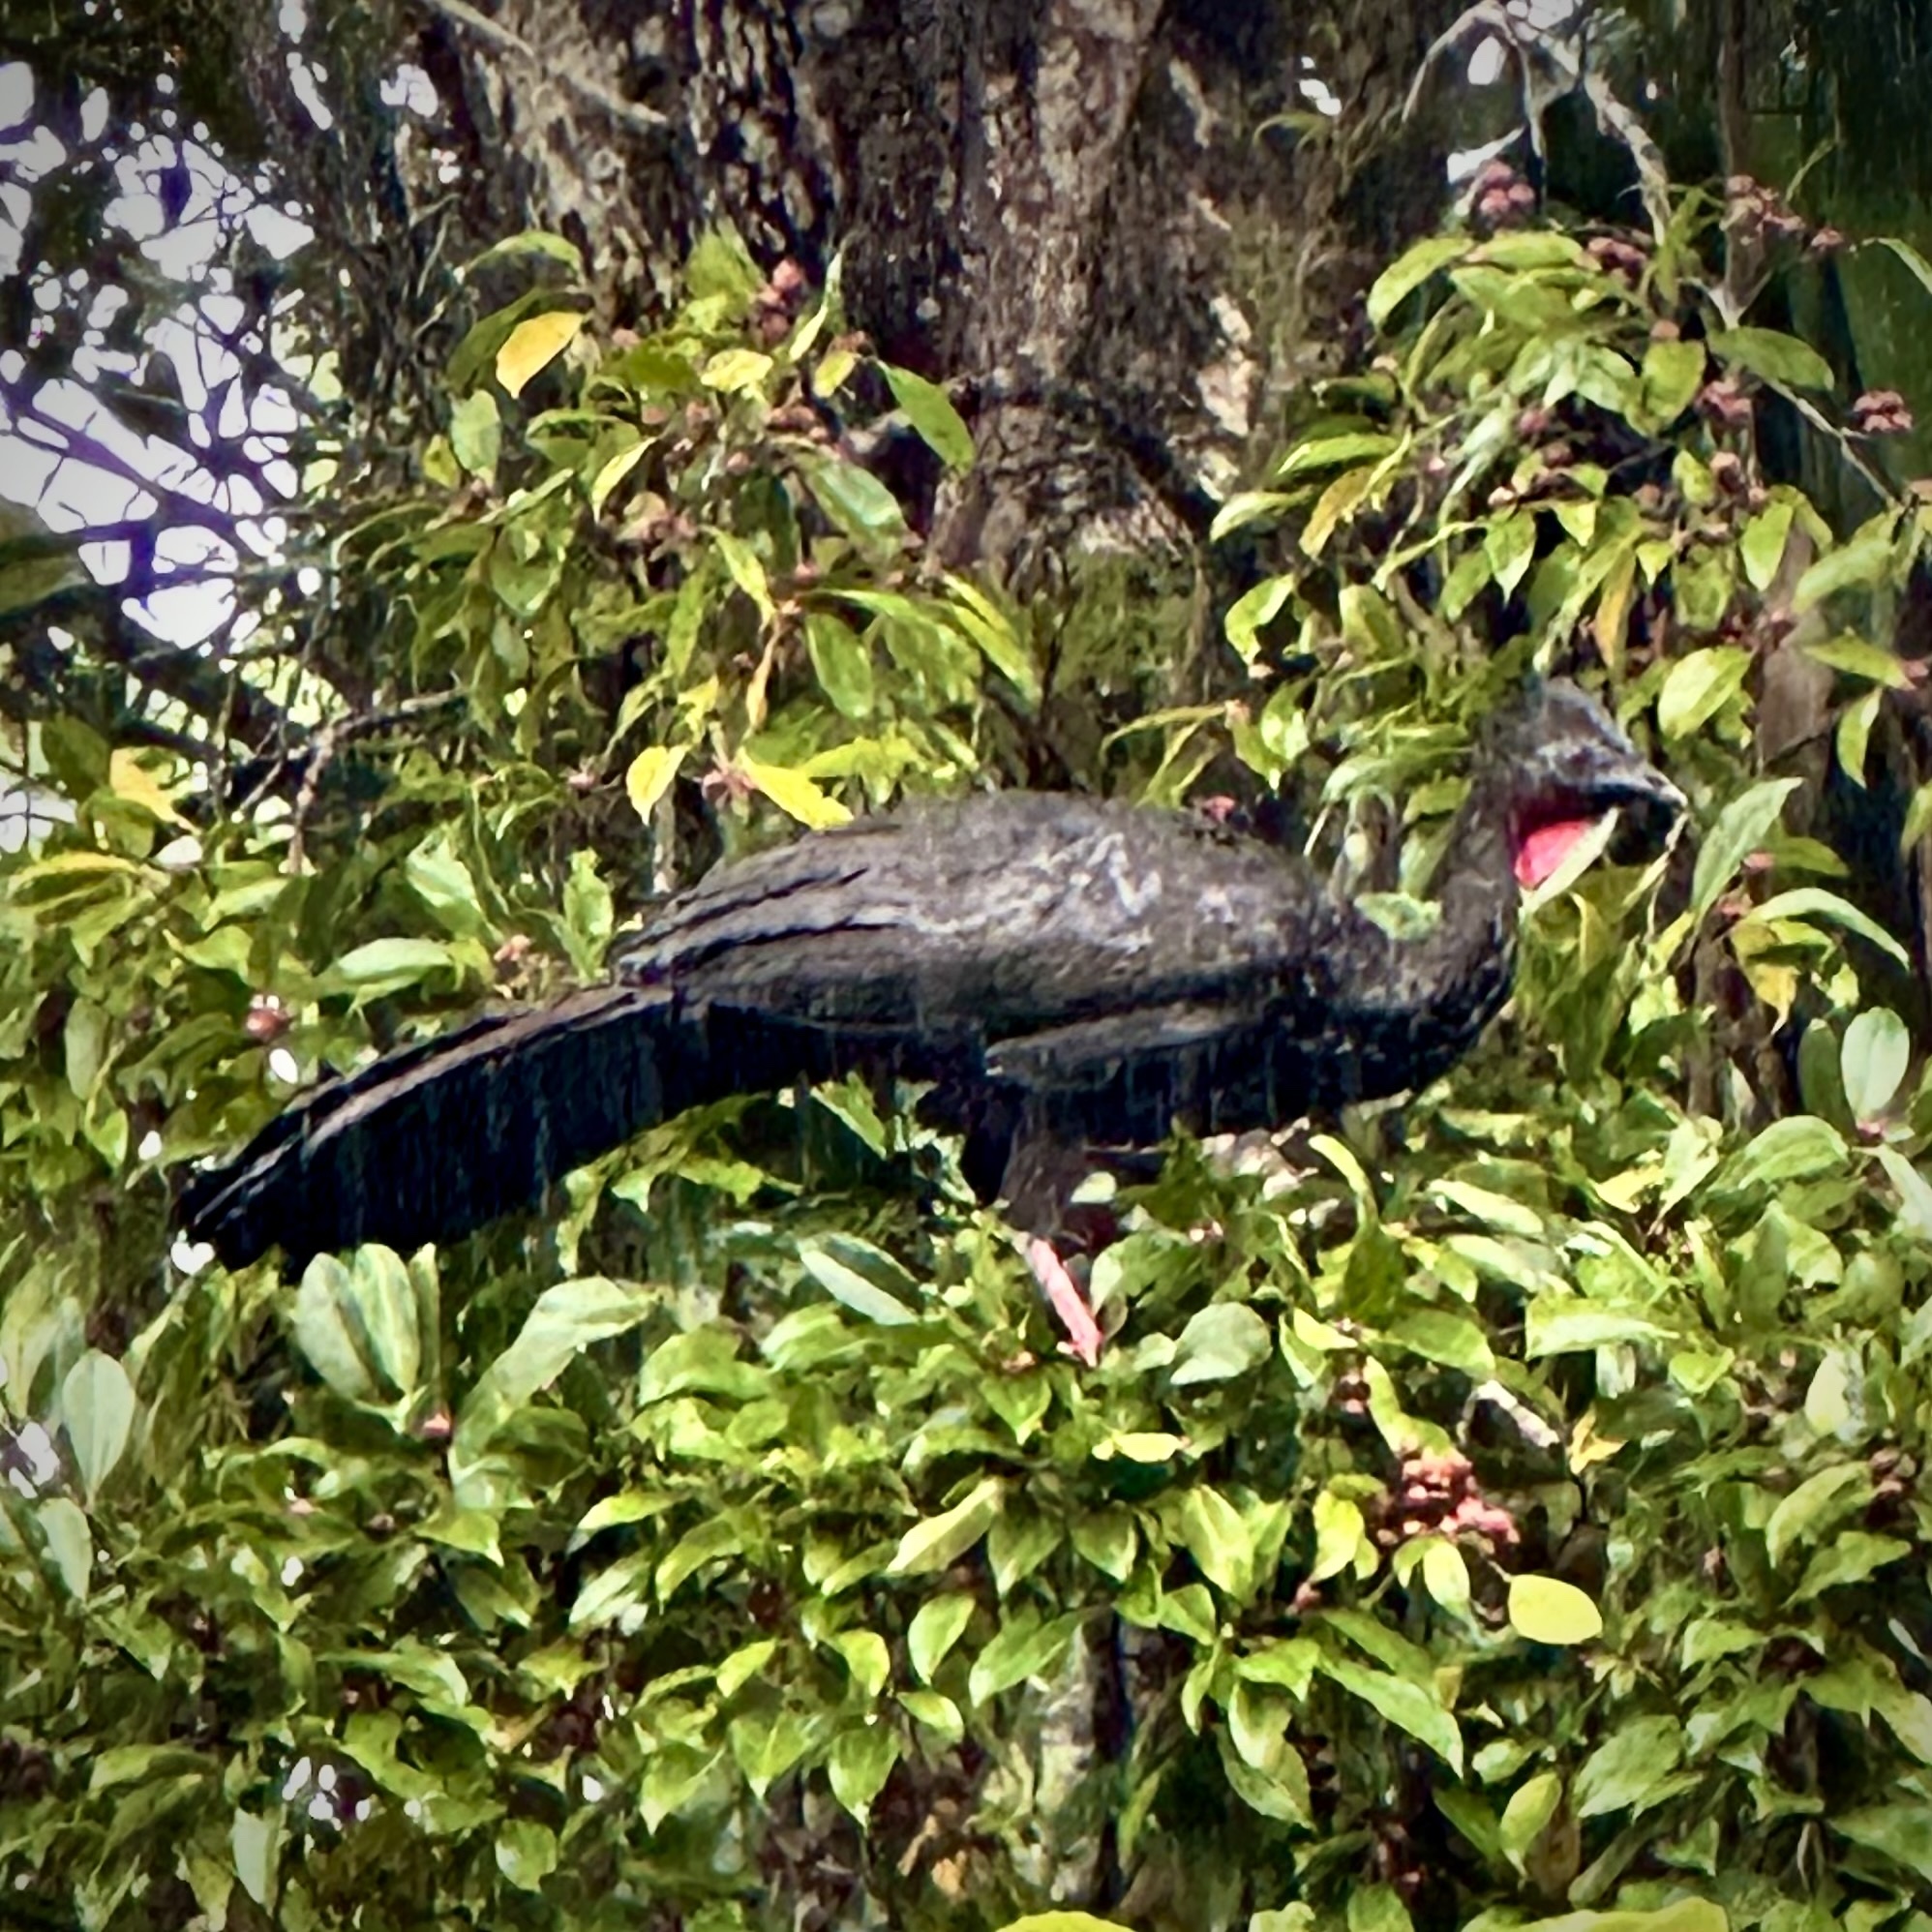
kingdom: Animalia
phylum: Chordata
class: Aves
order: Galliformes
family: Cracidae
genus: Penelope
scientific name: Penelope purpurascens
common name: Crested guan
